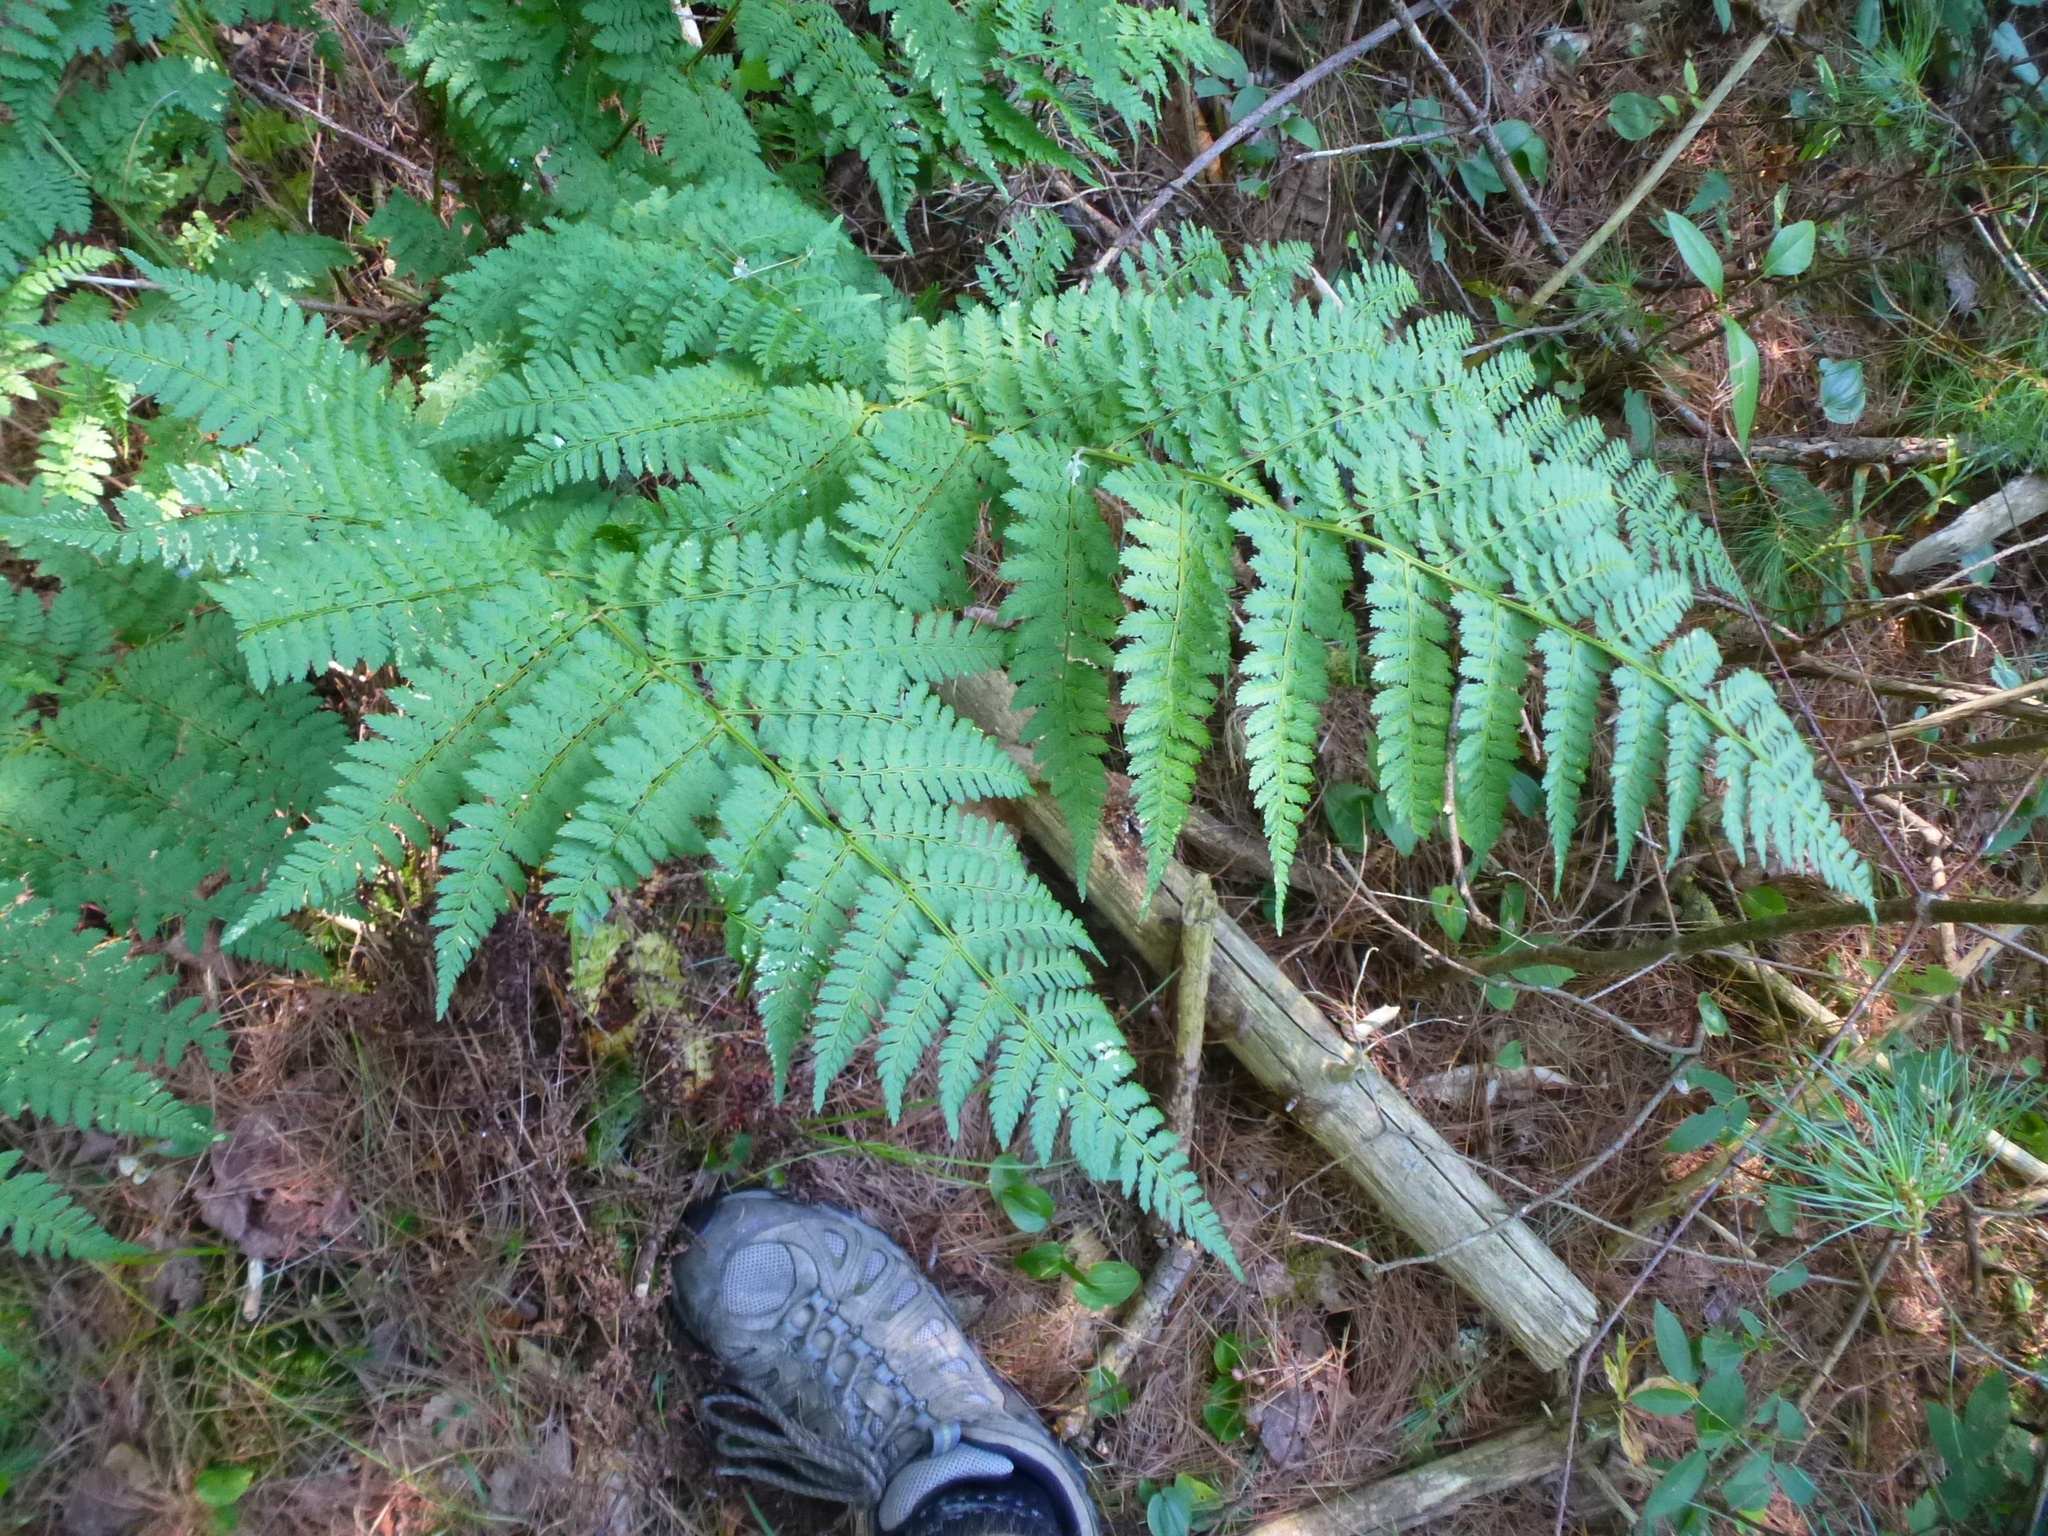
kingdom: Plantae
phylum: Tracheophyta
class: Polypodiopsida
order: Polypodiales
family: Dryopteridaceae
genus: Dryopteris
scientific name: Dryopteris intermedia
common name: Evergreen wood fern
